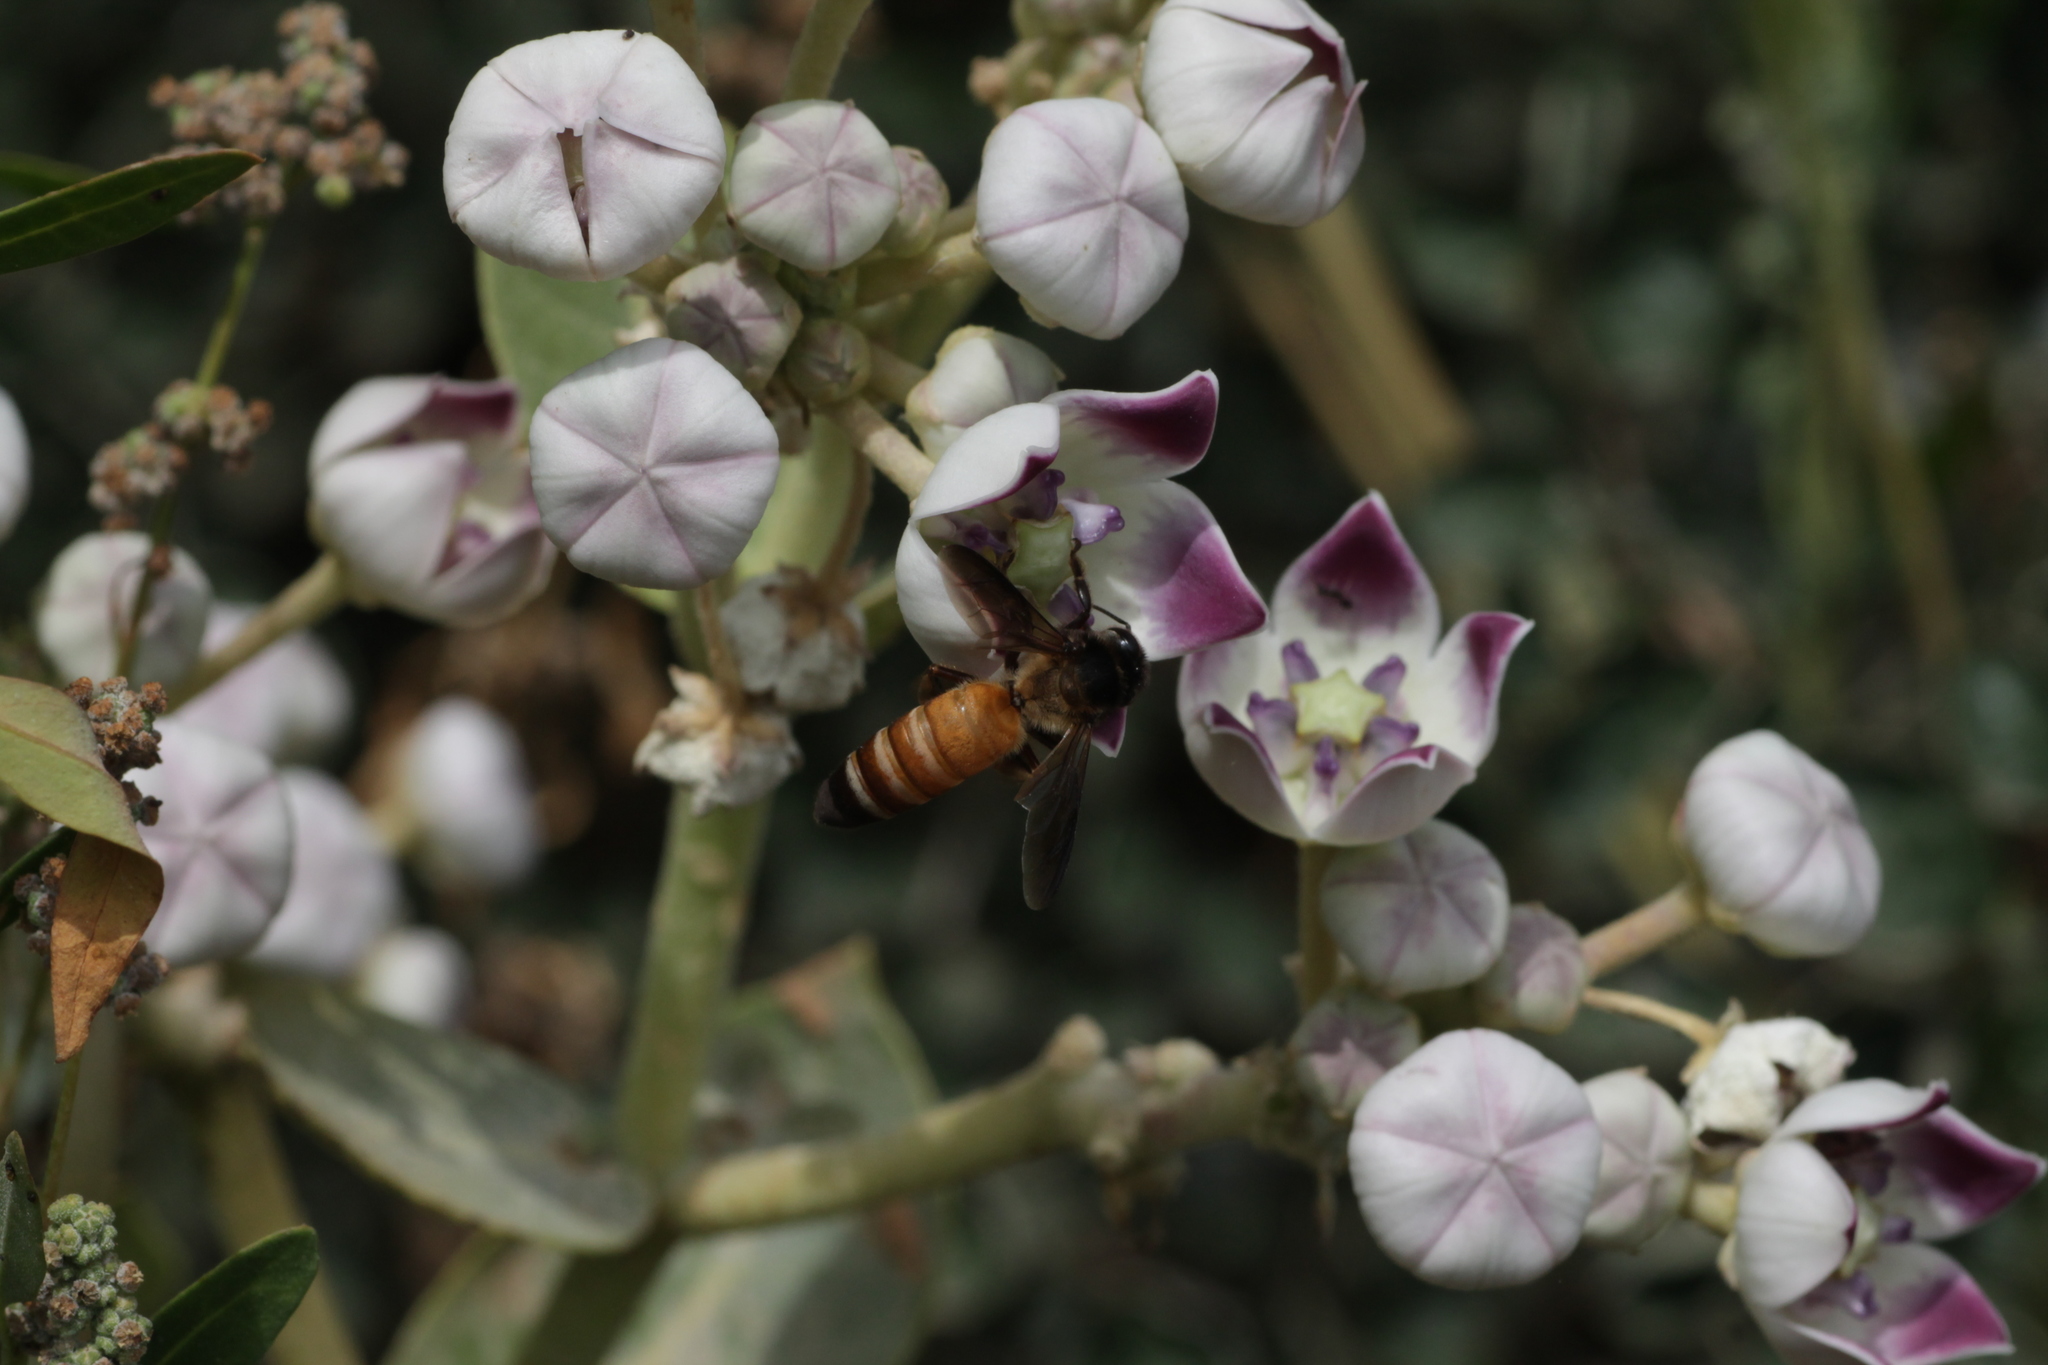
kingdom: Animalia
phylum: Arthropoda
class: Insecta
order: Hymenoptera
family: Apidae
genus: Apis
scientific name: Apis dorsata
